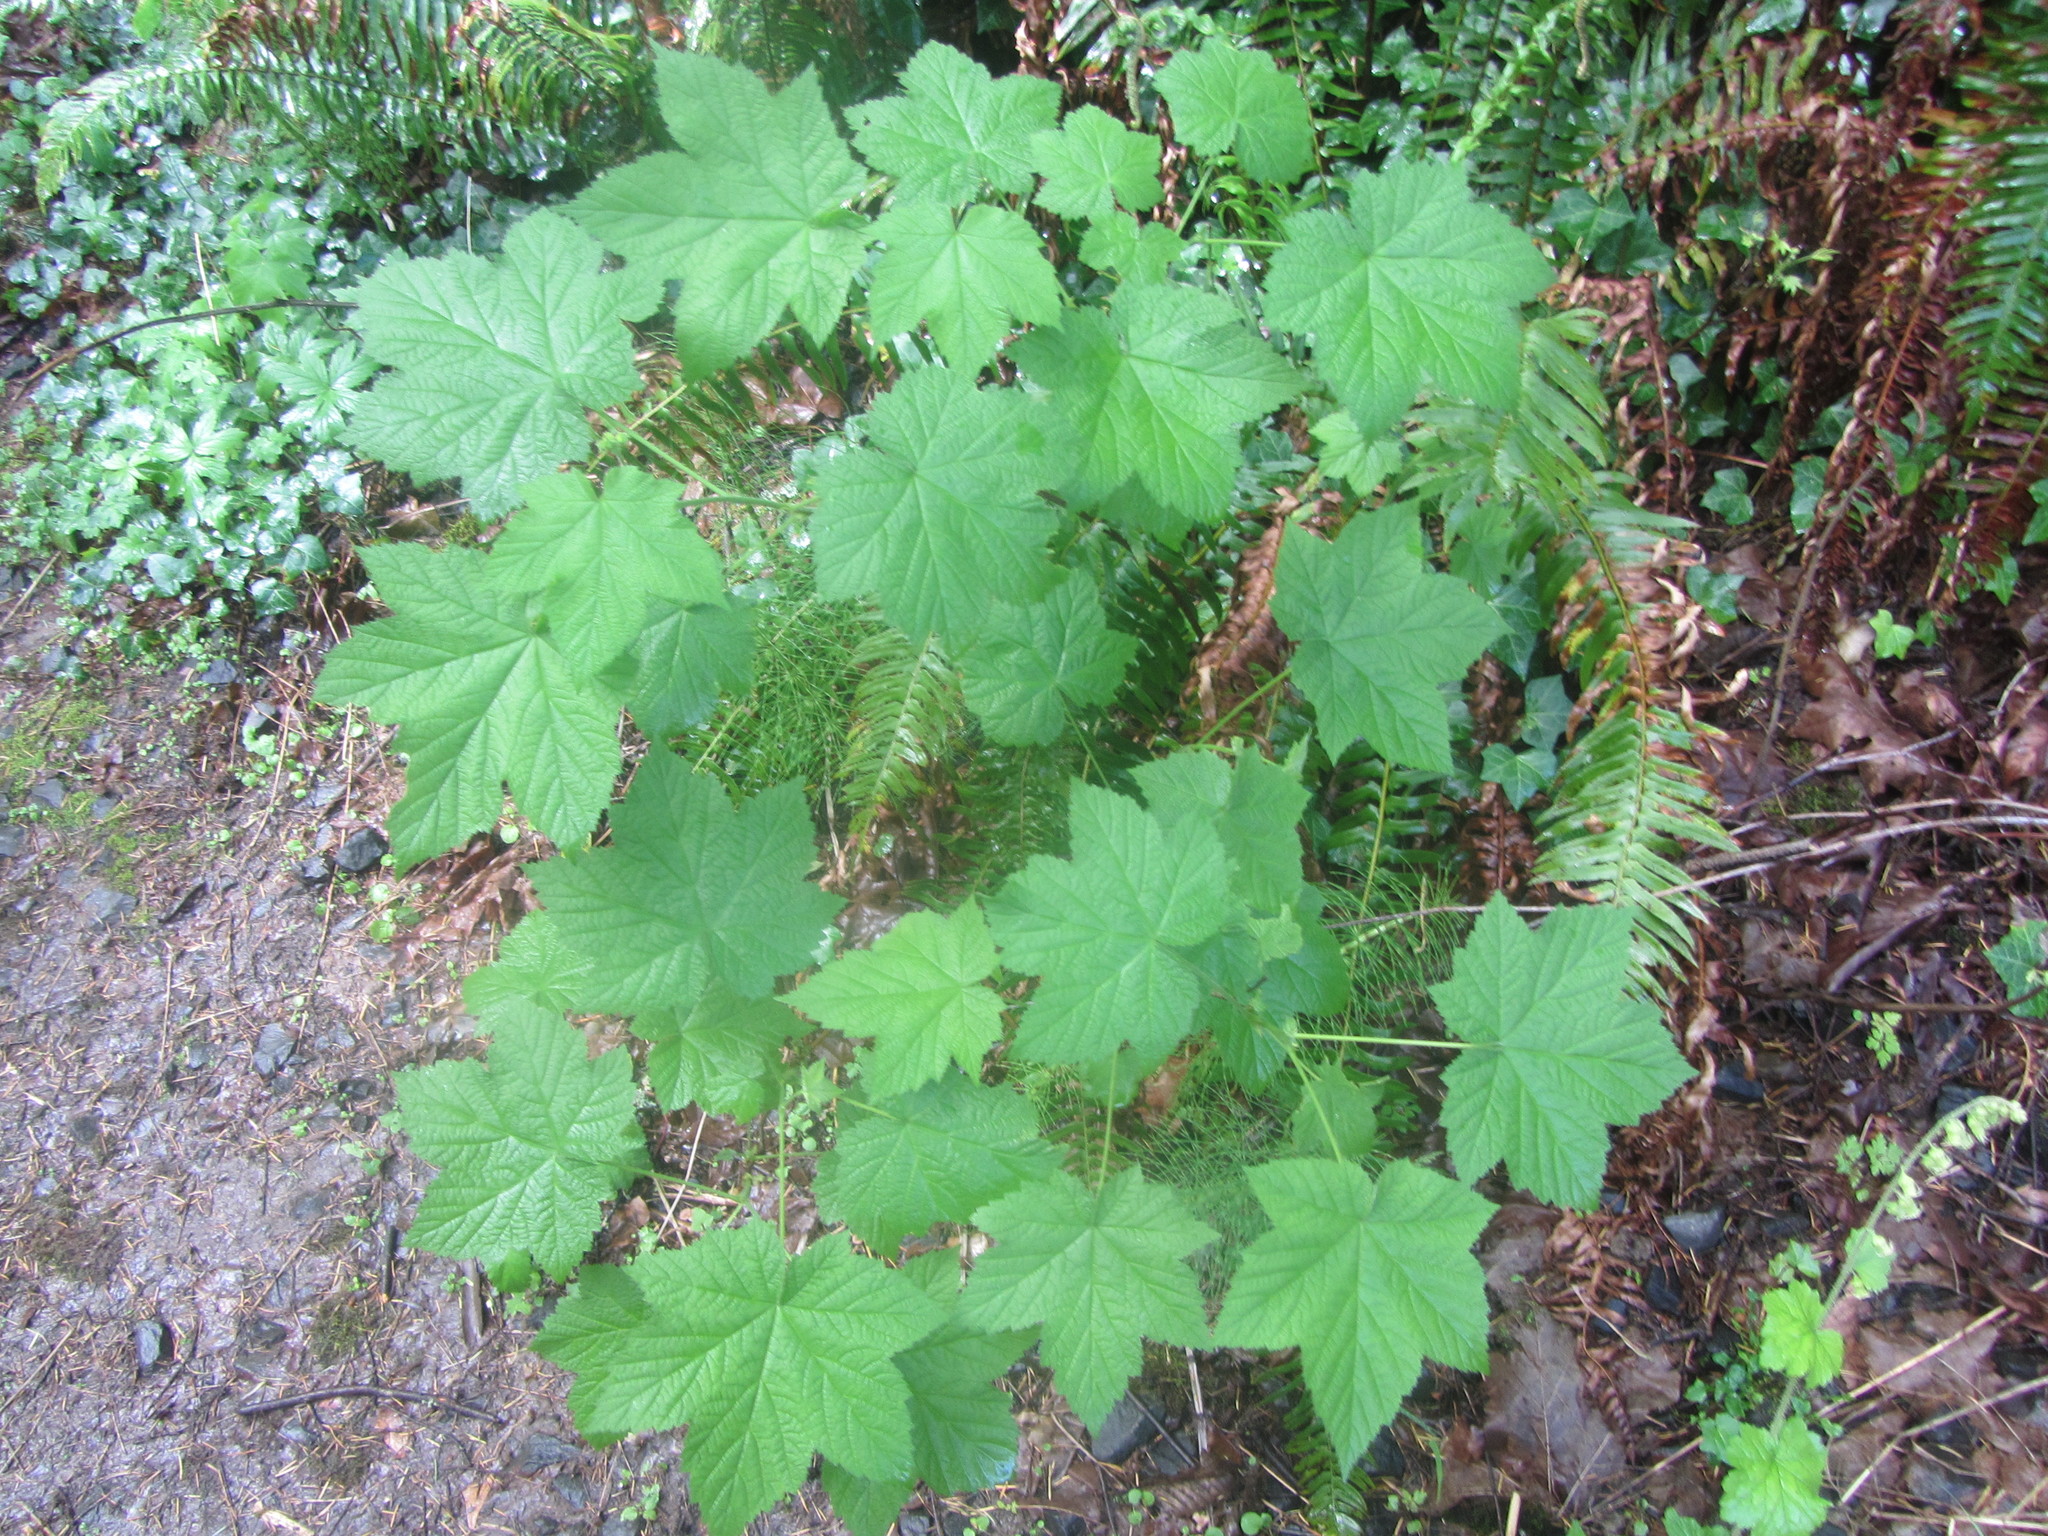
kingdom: Plantae
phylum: Tracheophyta
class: Magnoliopsida
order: Rosales
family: Rosaceae
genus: Rubus
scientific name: Rubus parviflorus
